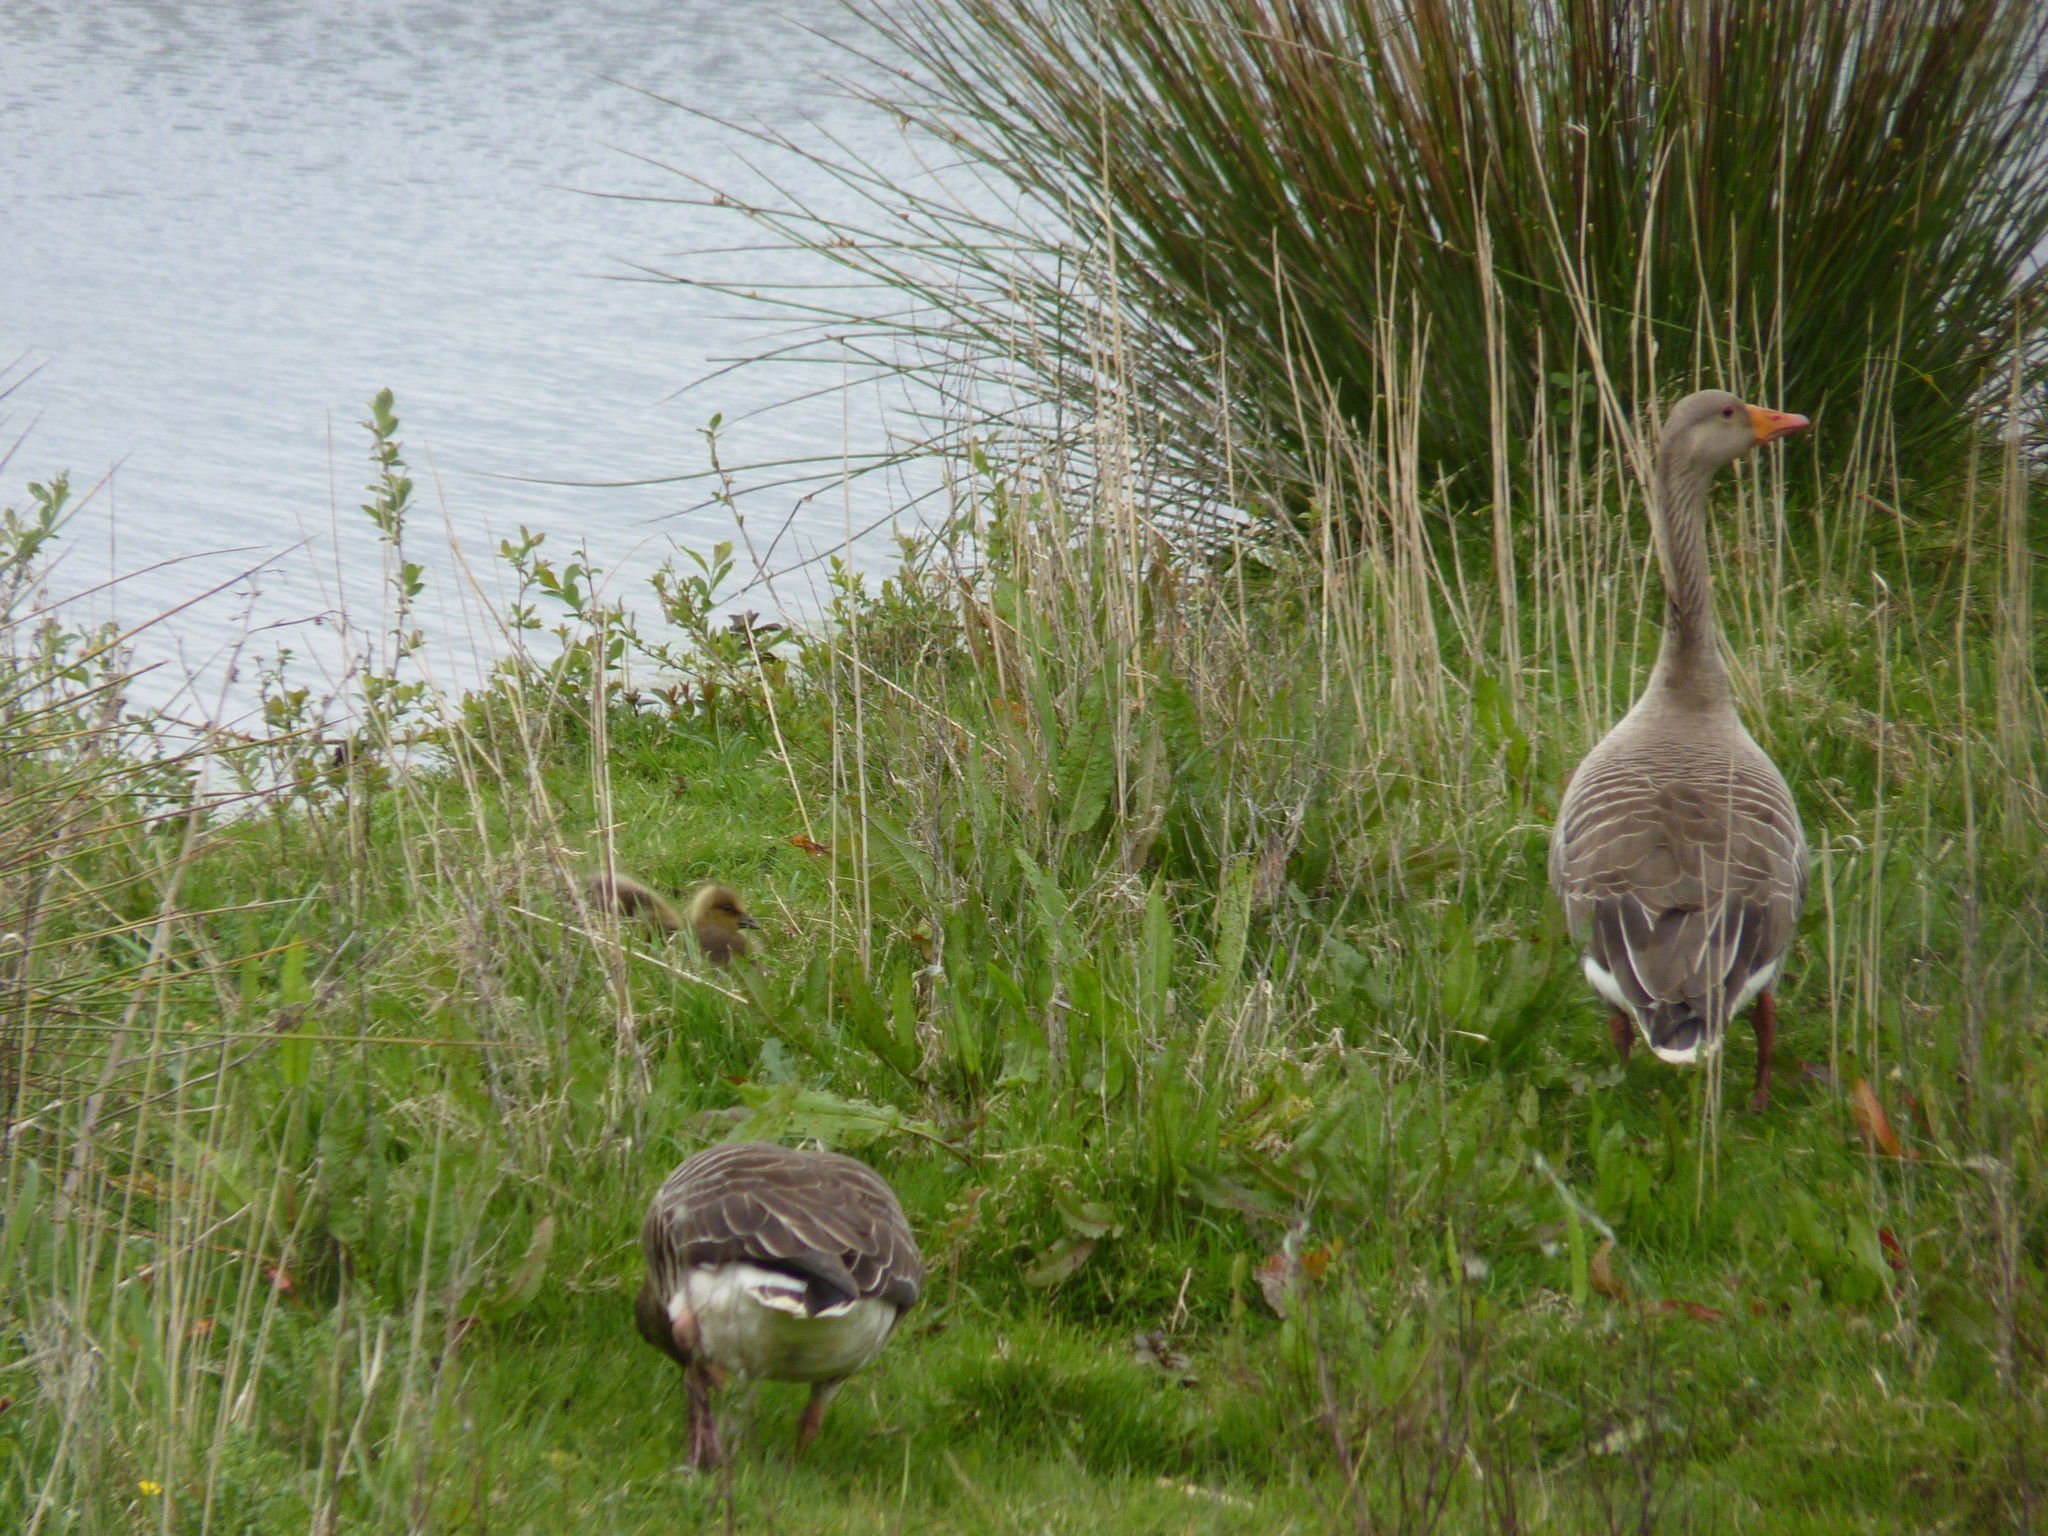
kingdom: Animalia
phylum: Chordata
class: Aves
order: Anseriformes
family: Anatidae
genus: Anser
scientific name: Anser anser
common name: Greylag goose
